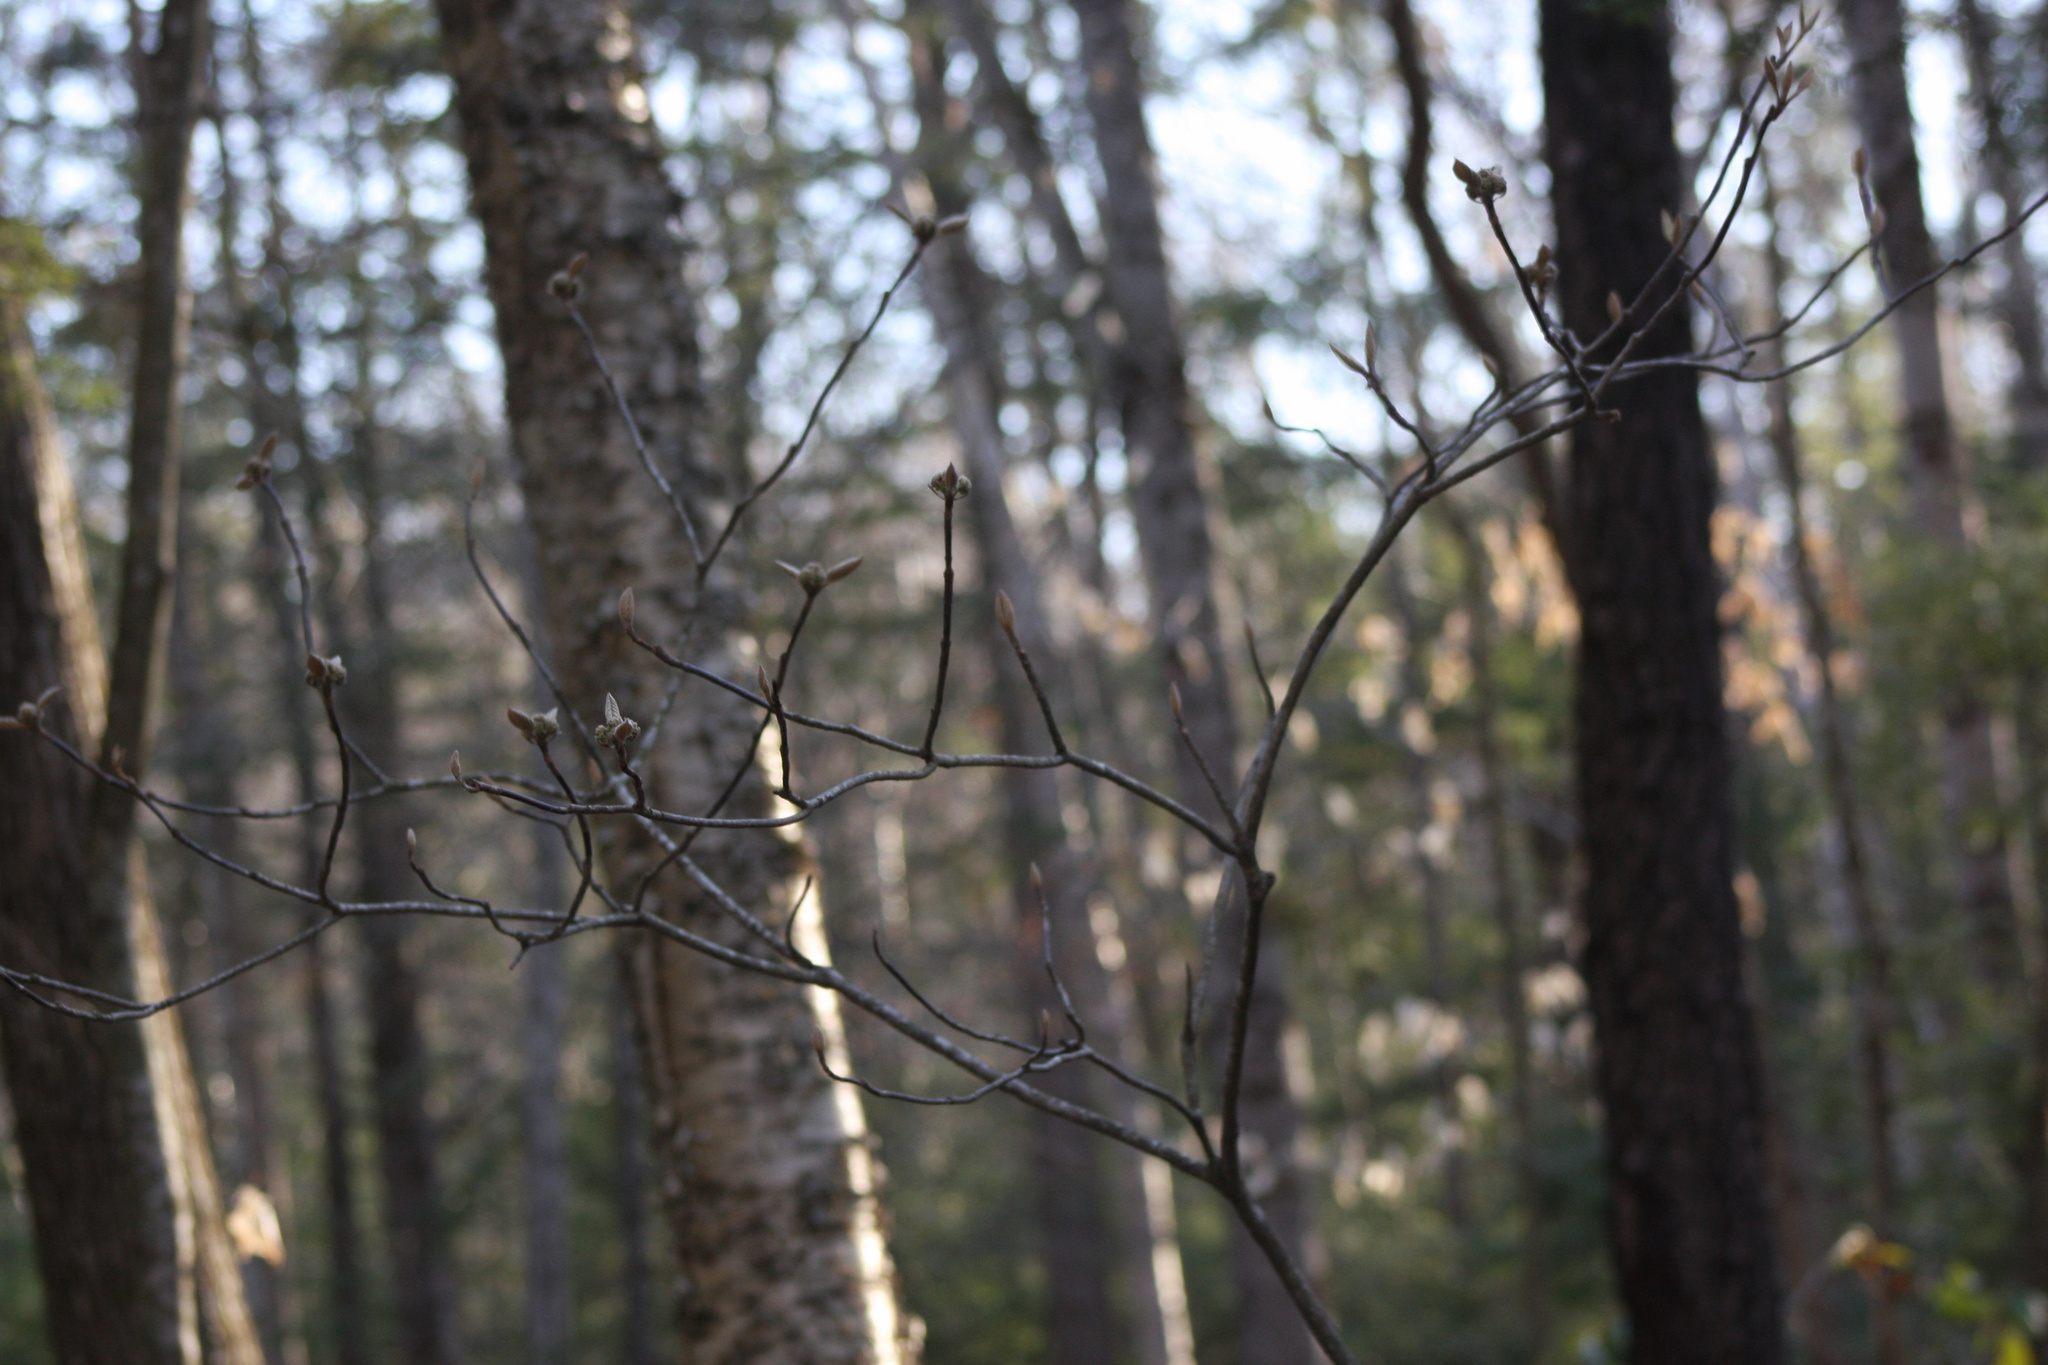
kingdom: Plantae
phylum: Tracheophyta
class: Magnoliopsida
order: Dipsacales
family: Viburnaceae
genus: Viburnum
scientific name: Viburnum lantanoides
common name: Hobblebush
